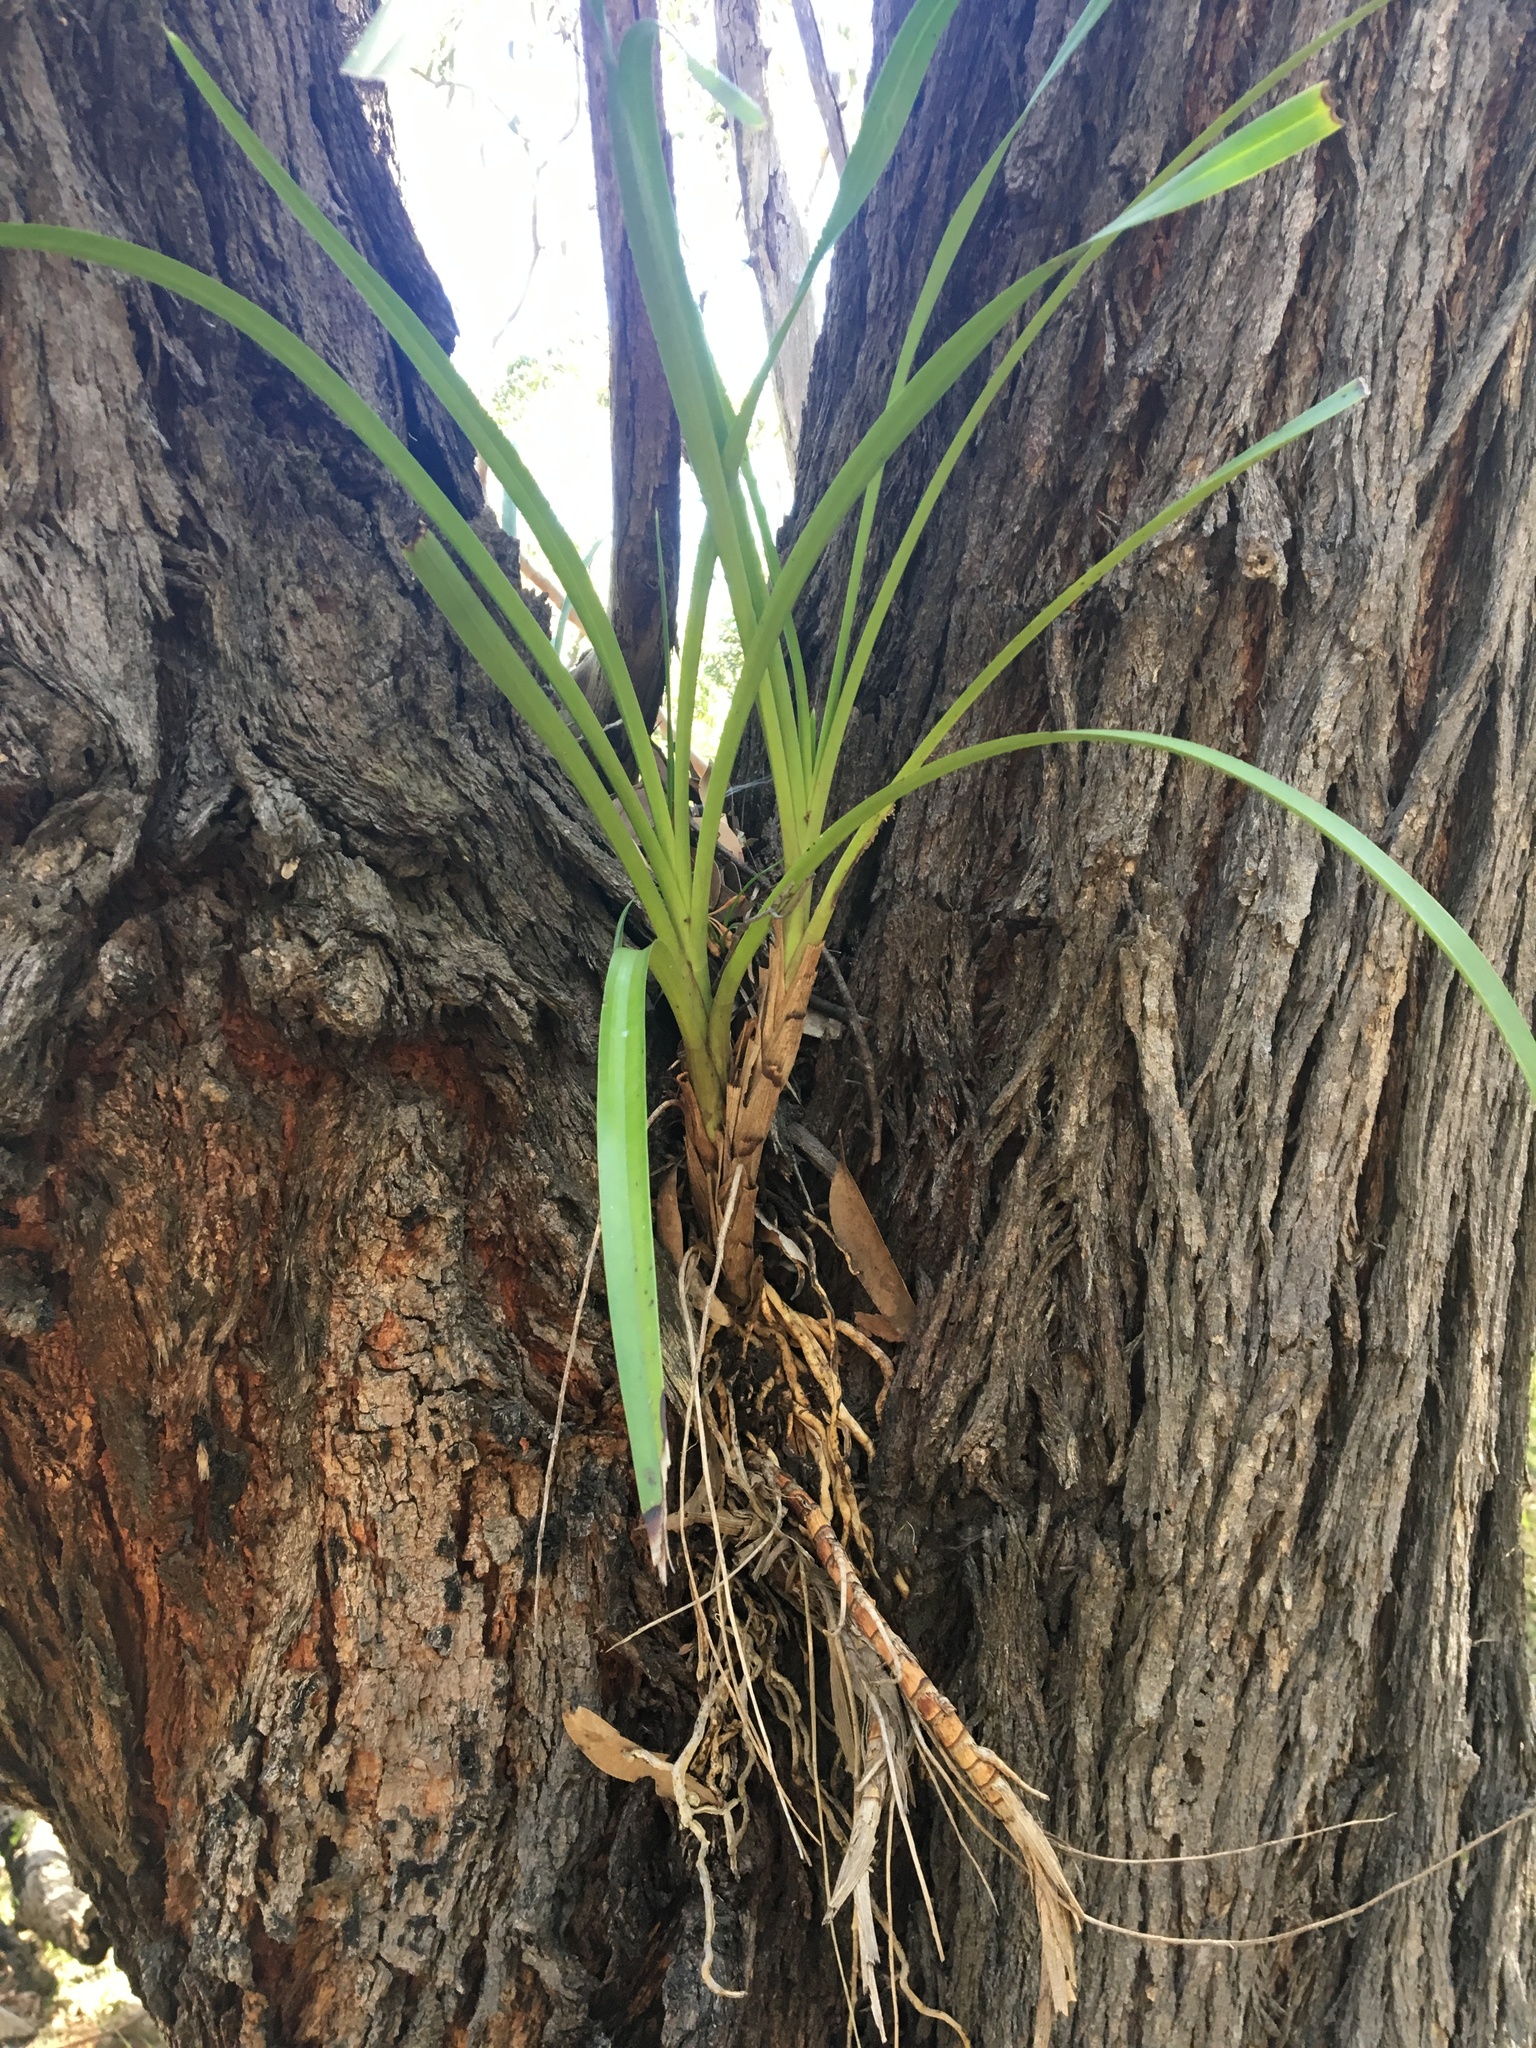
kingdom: Plantae
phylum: Tracheophyta
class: Liliopsida
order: Asparagales
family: Orchidaceae
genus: Cymbidium
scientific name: Cymbidium suave
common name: Snake orchid
